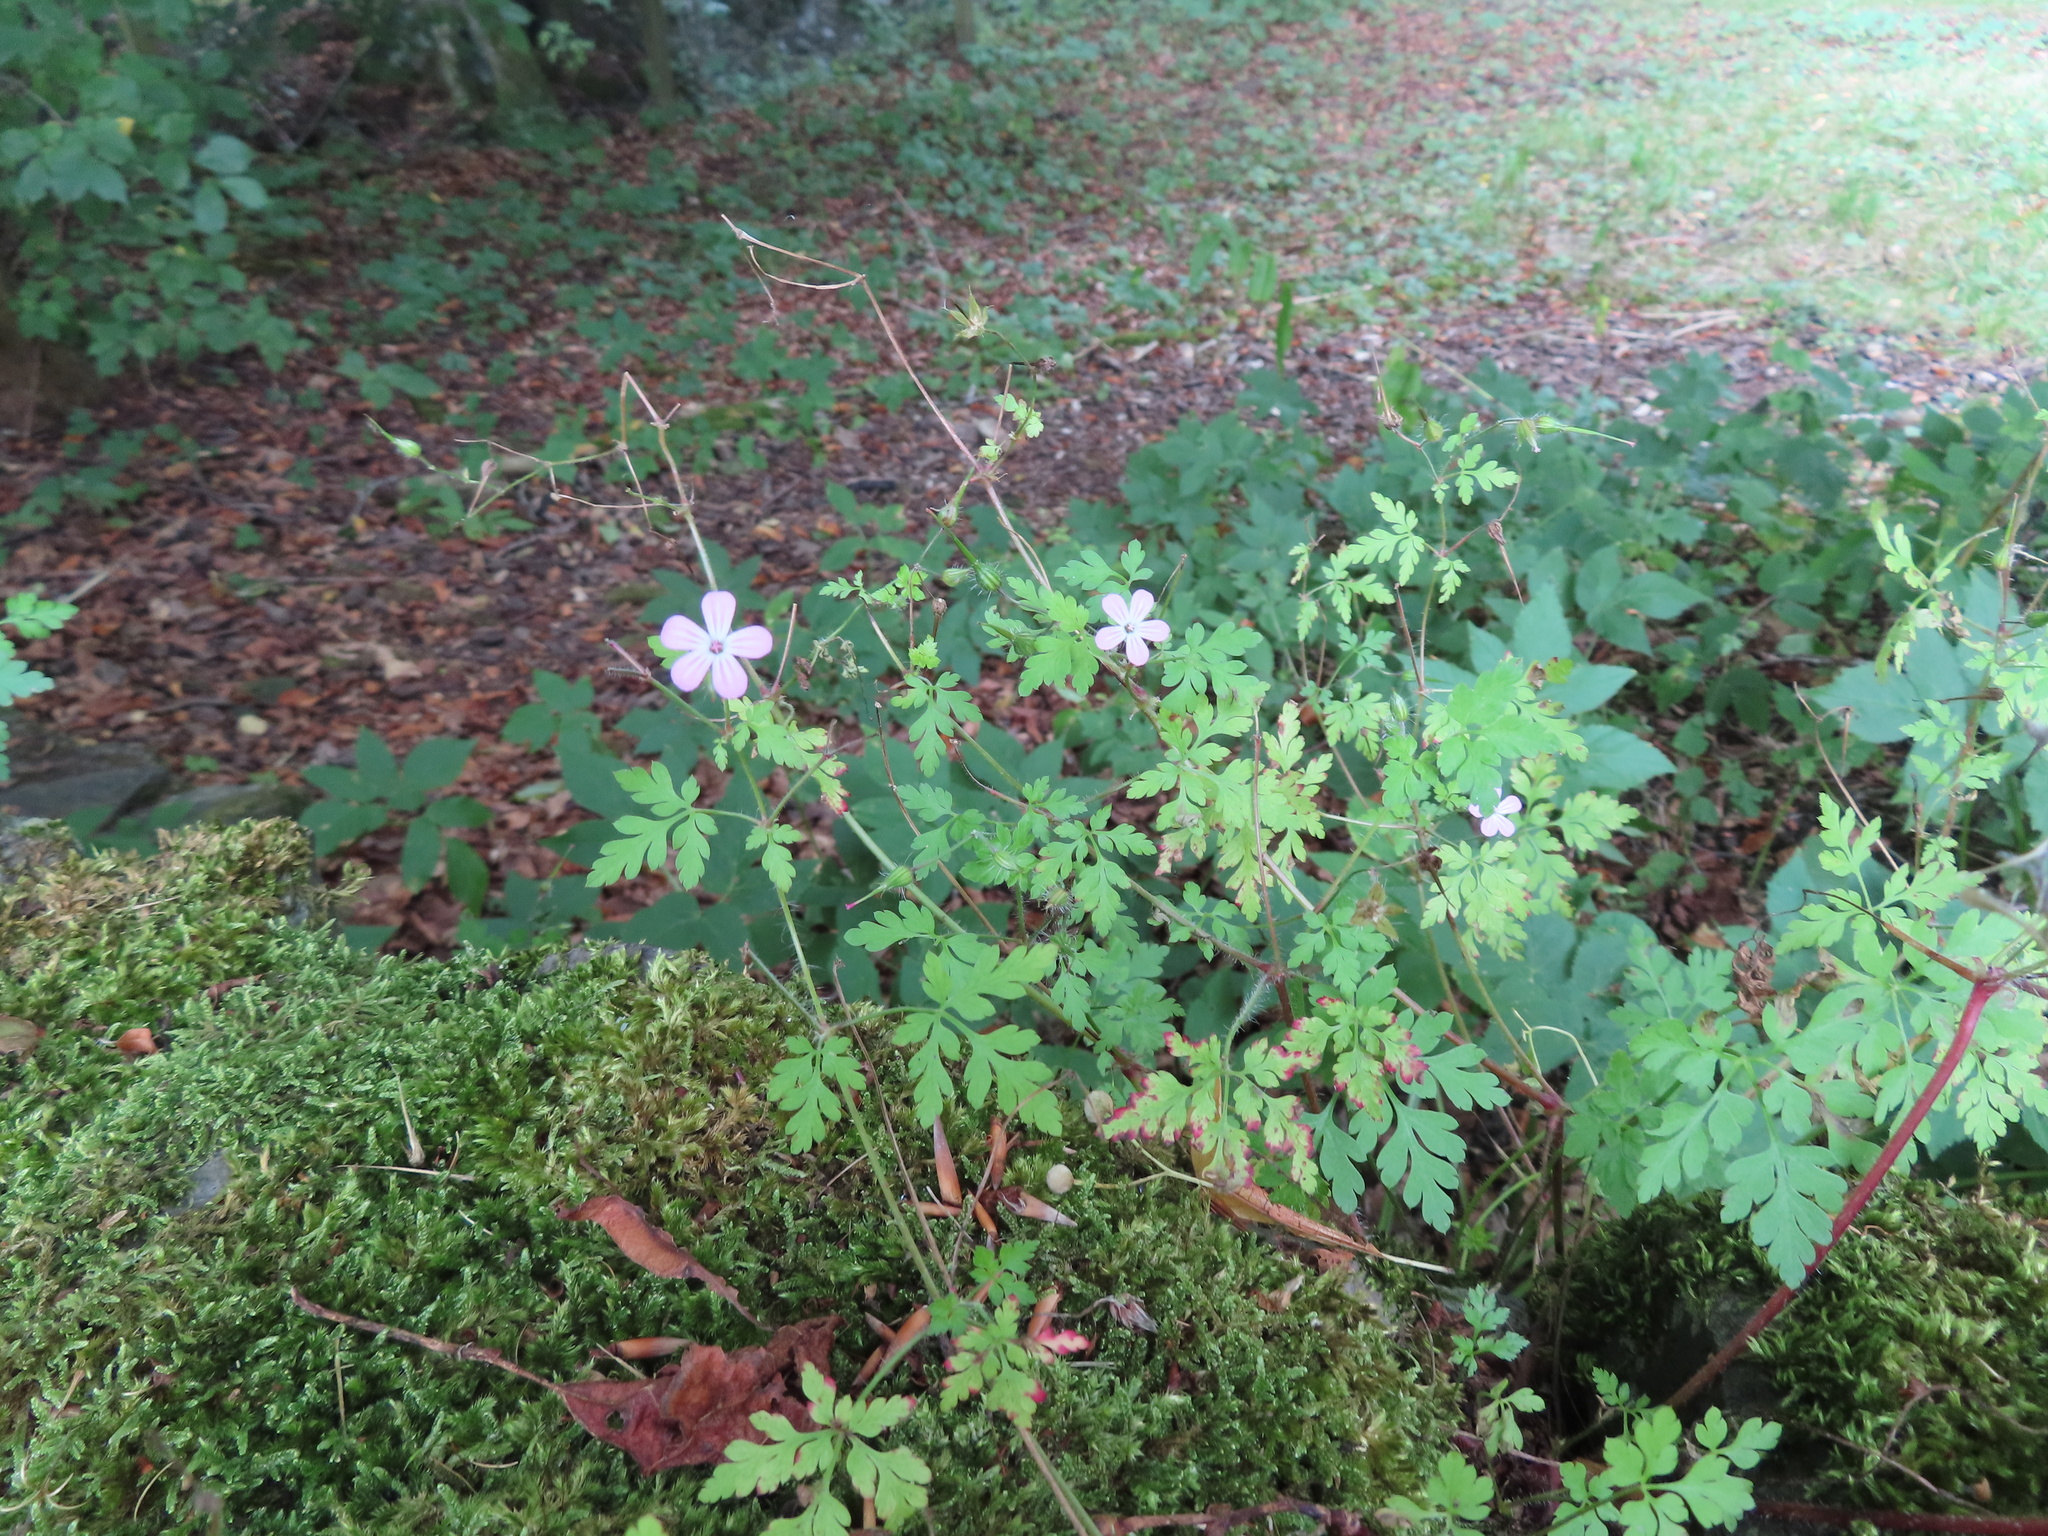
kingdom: Plantae
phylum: Tracheophyta
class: Magnoliopsida
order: Geraniales
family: Geraniaceae
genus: Geranium
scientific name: Geranium robertianum
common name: Herb-robert
